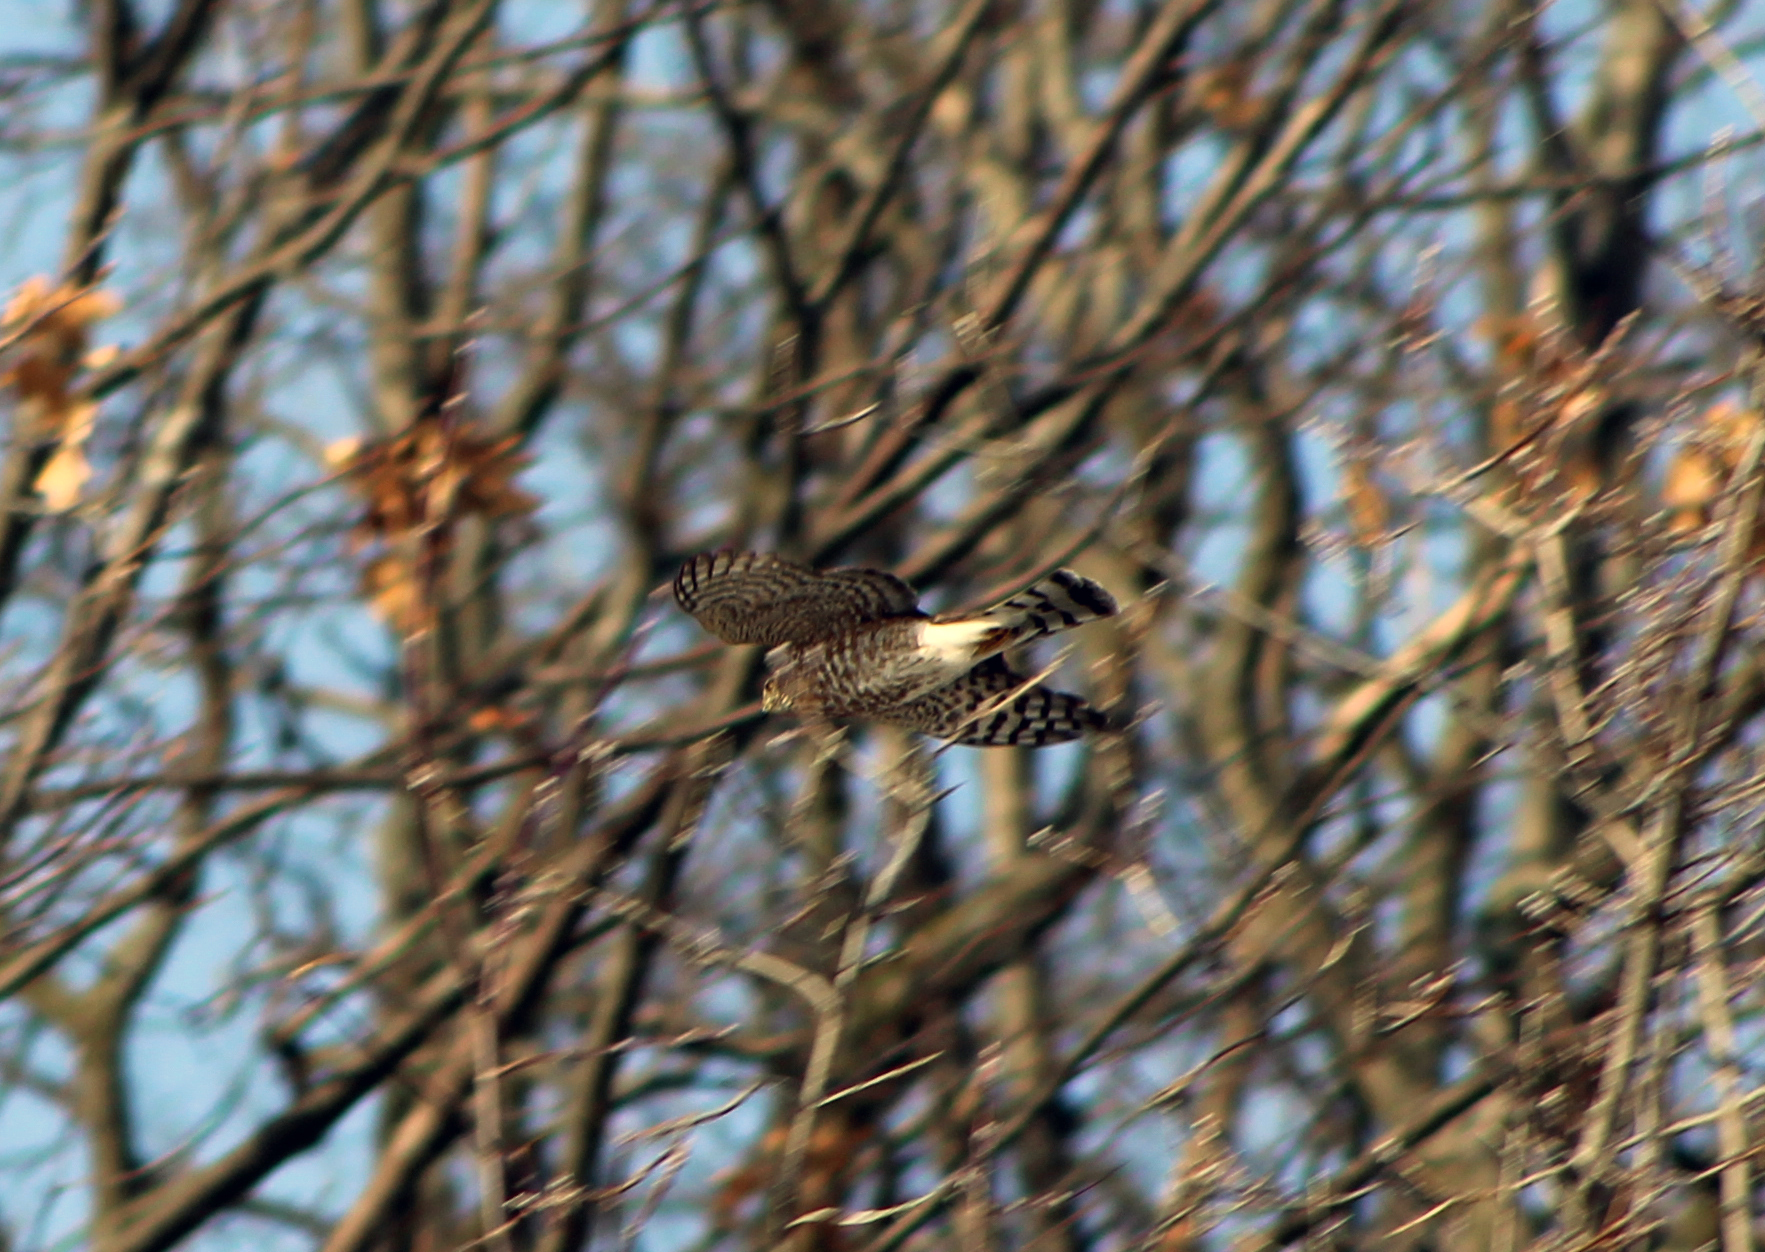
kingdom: Animalia
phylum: Chordata
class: Aves
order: Accipitriformes
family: Accipitridae
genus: Accipiter
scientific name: Accipiter striatus
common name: Sharp-shinned hawk
